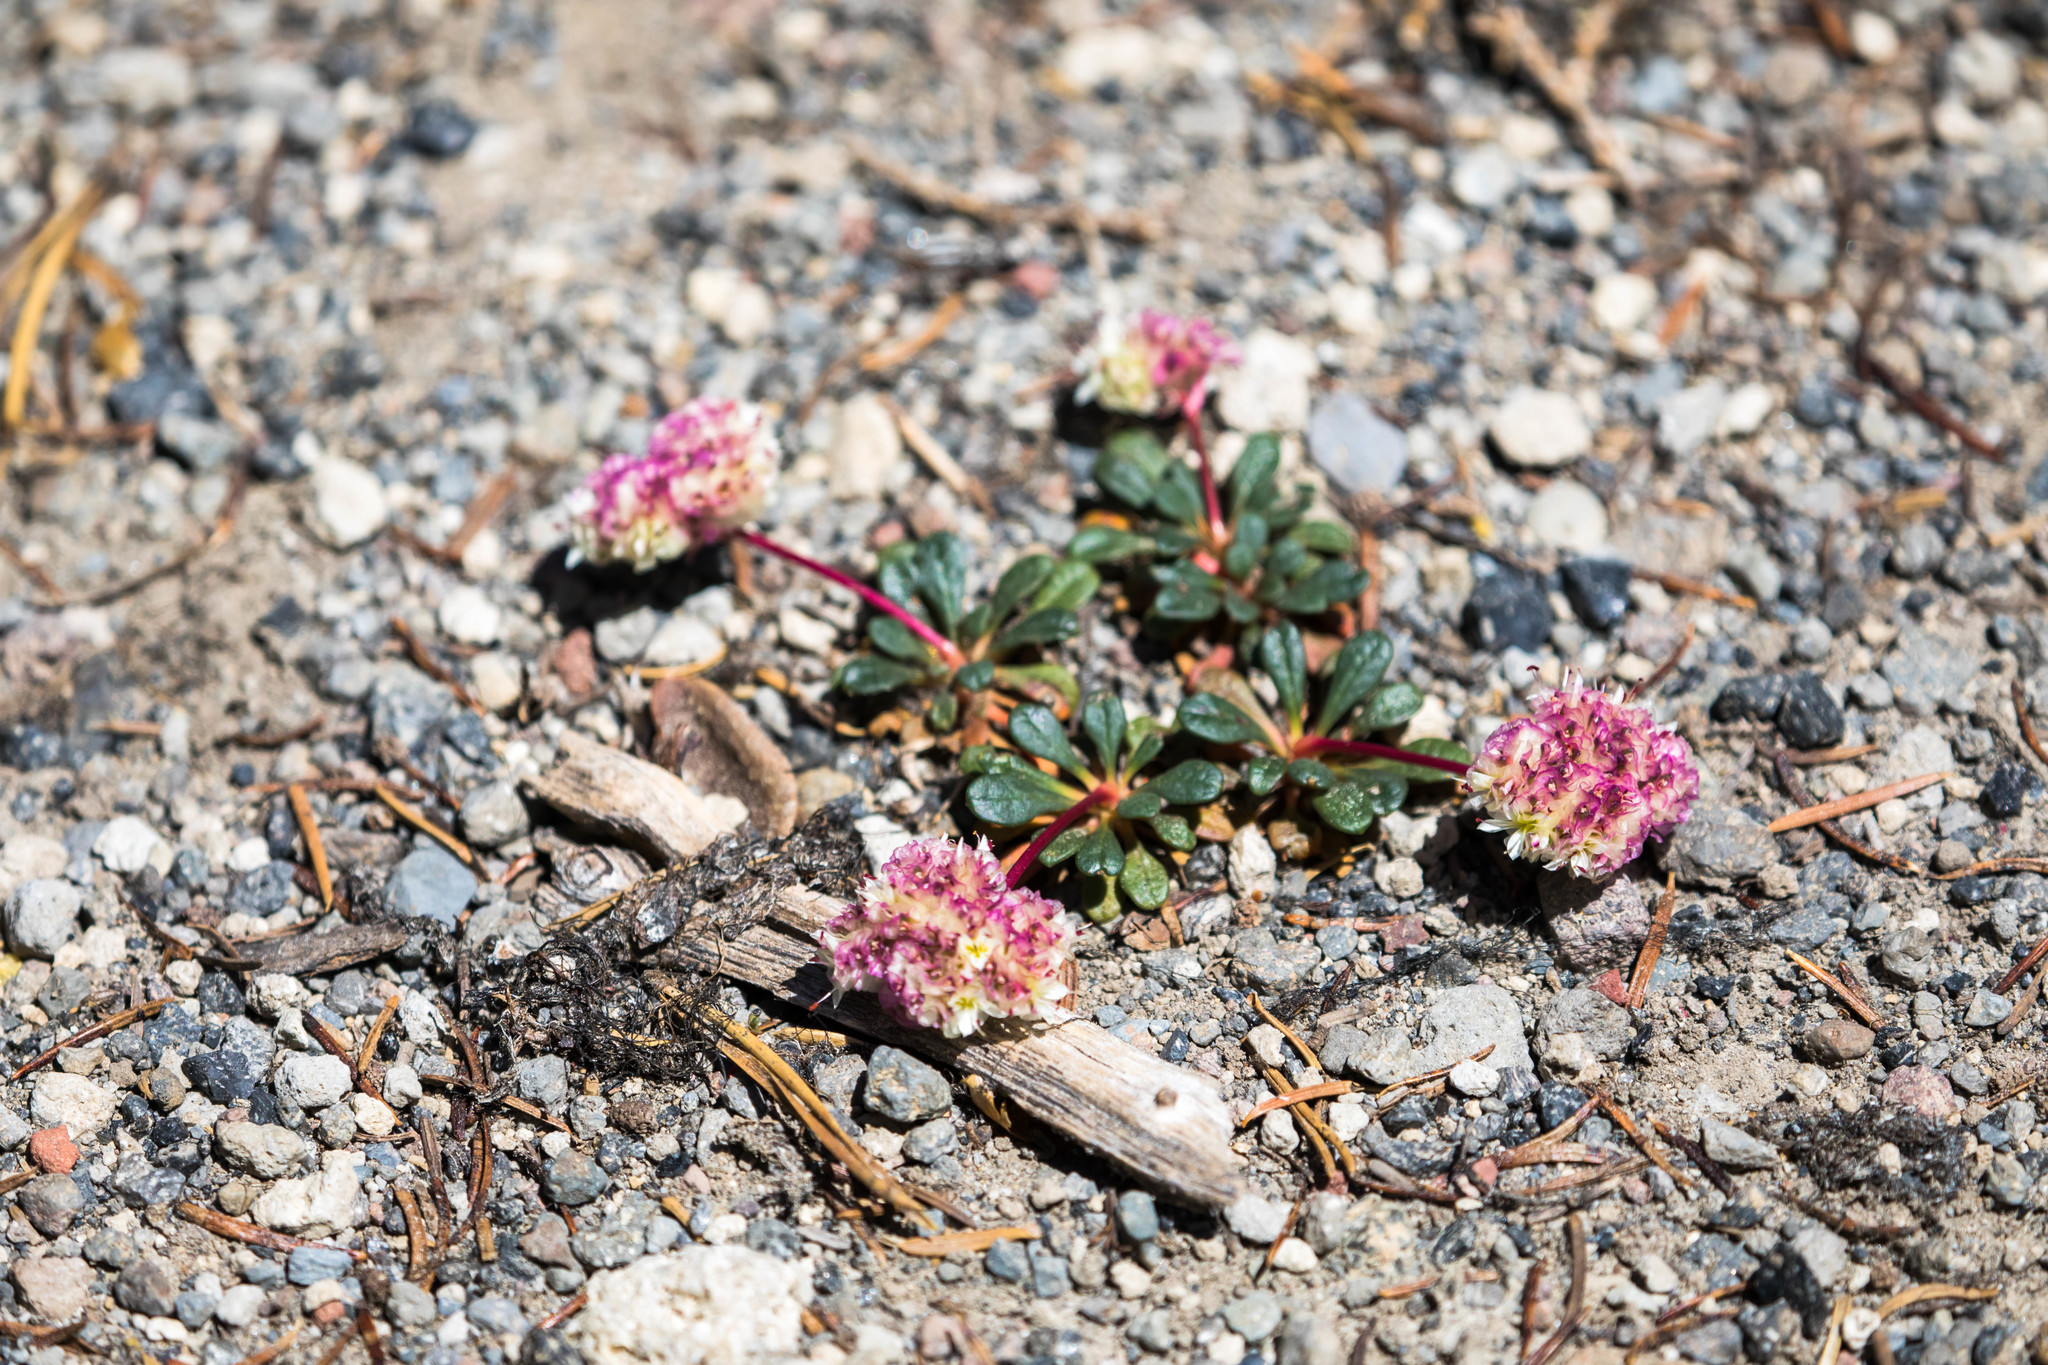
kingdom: Plantae
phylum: Tracheophyta
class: Magnoliopsida
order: Caryophyllales
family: Montiaceae
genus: Calyptridium
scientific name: Calyptridium umbellatum
